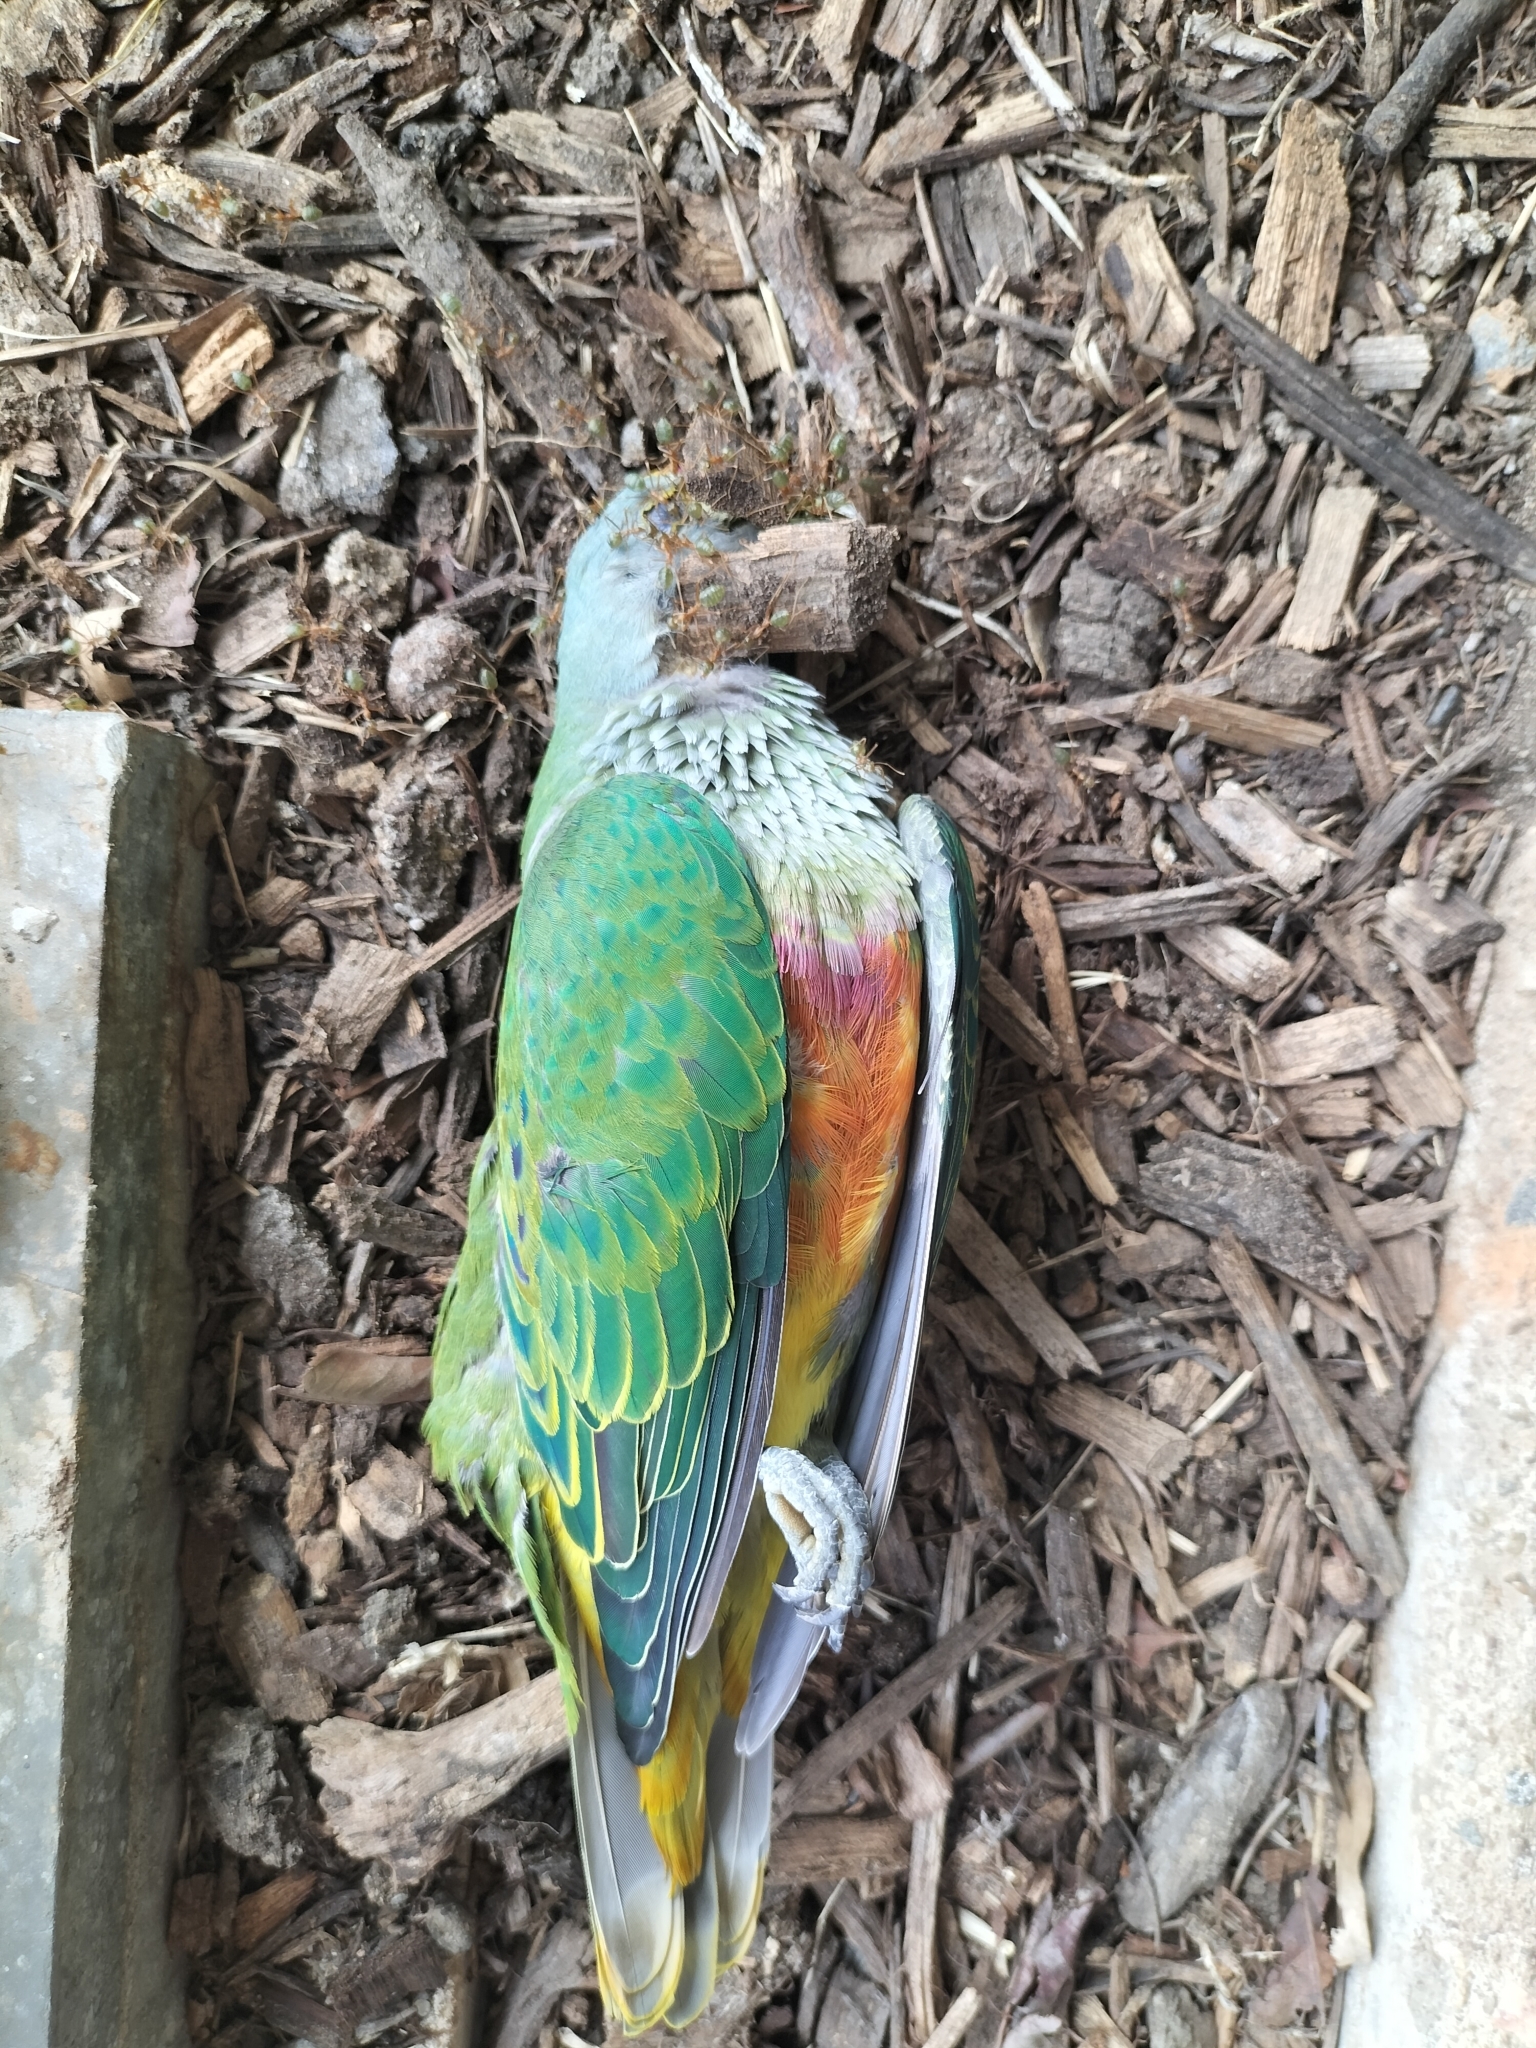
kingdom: Animalia
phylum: Chordata
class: Aves
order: Columbiformes
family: Columbidae
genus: Ptilinopus
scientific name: Ptilinopus regina
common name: Rose-crowned fruit dove
